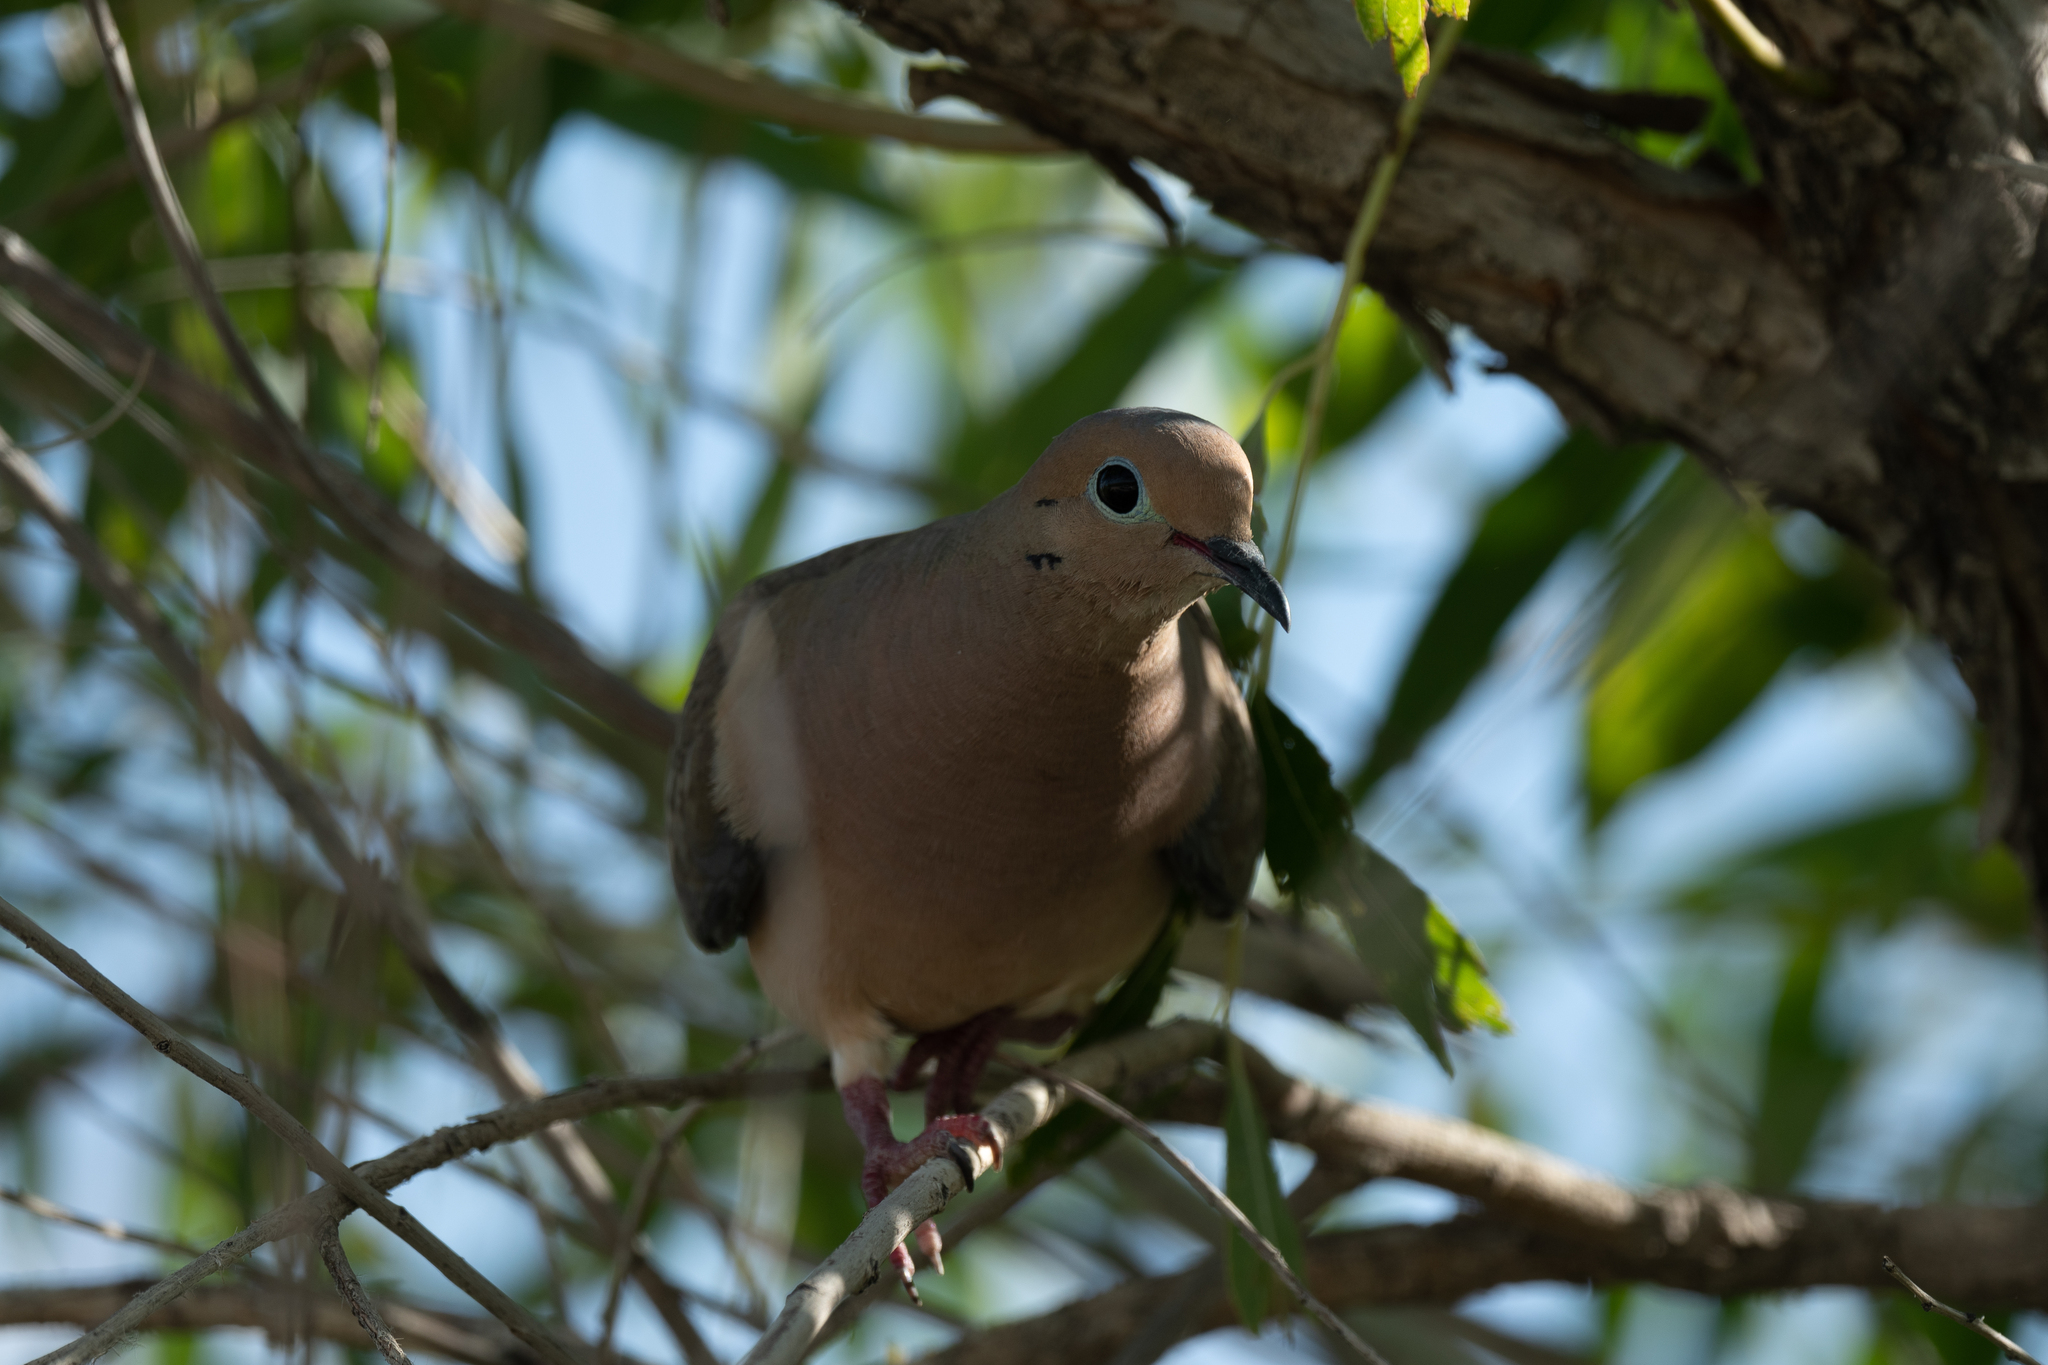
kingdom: Animalia
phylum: Chordata
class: Aves
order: Columbiformes
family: Columbidae
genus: Zenaida
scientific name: Zenaida macroura
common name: Mourning dove
